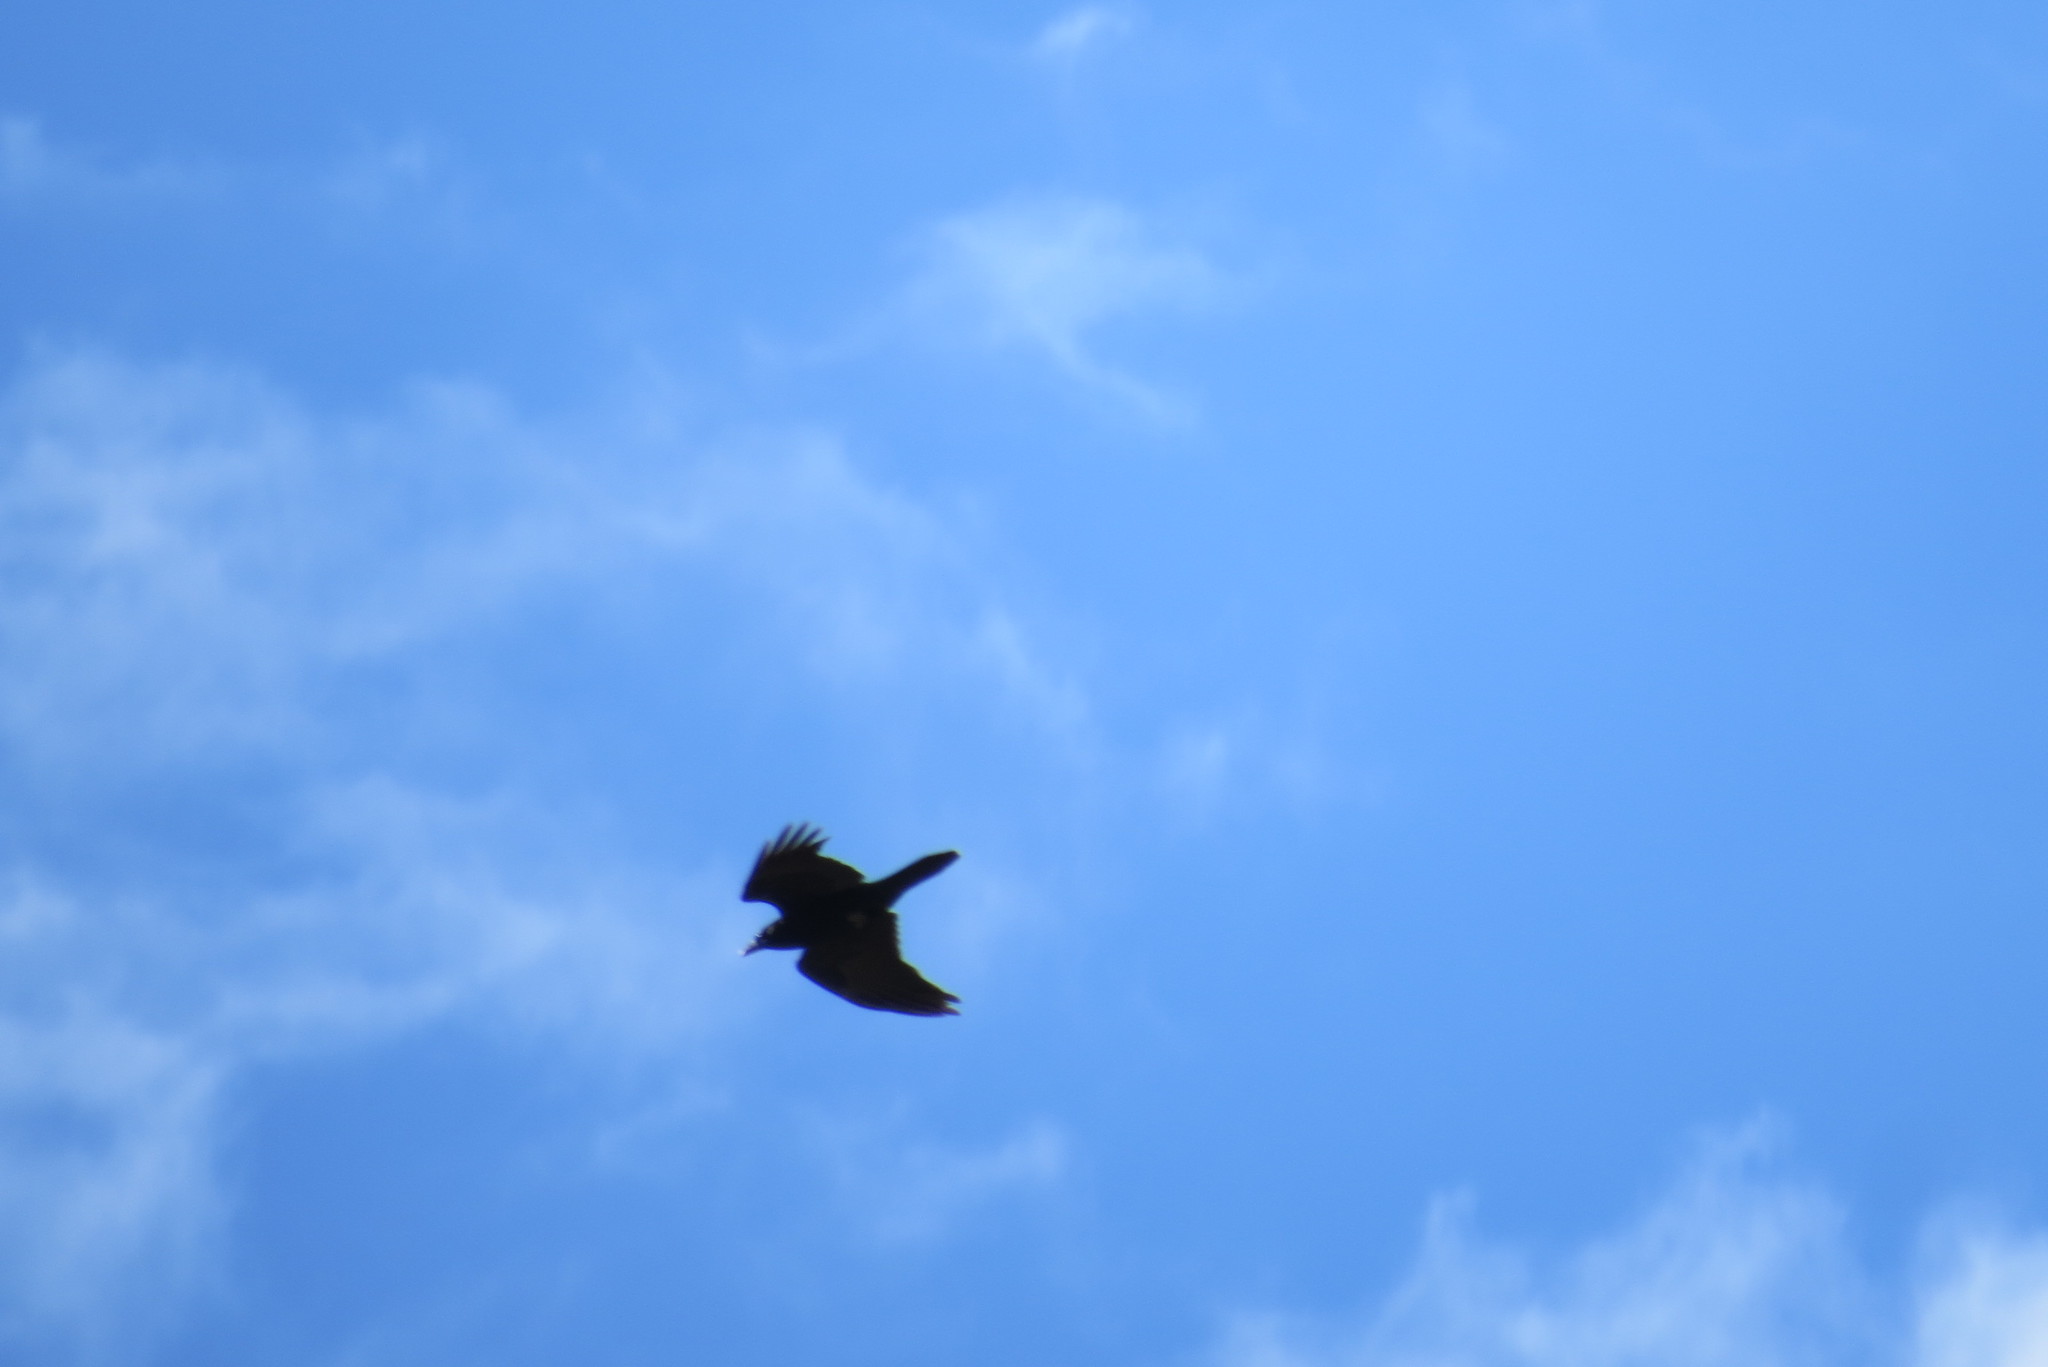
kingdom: Animalia
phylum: Chordata
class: Aves
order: Passeriformes
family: Corvidae
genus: Corvus
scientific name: Corvus cryptoleucus
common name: Chihuahuan raven
